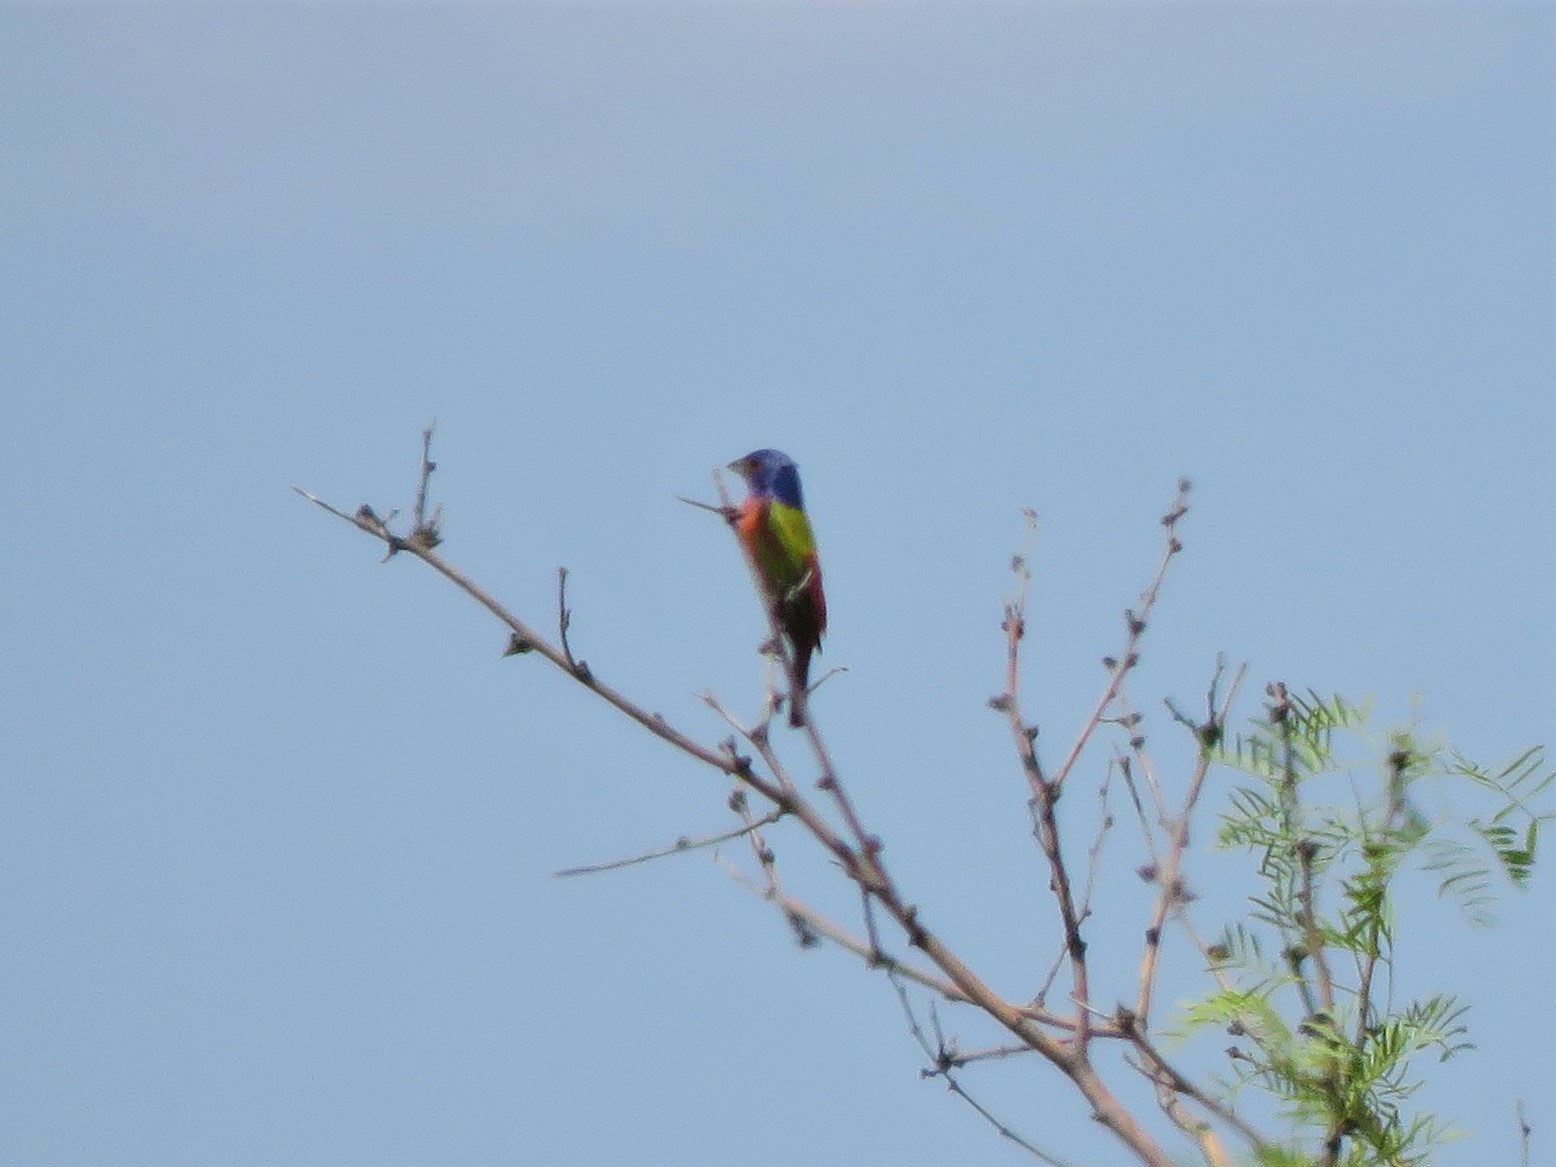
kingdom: Animalia
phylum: Chordata
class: Aves
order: Passeriformes
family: Cardinalidae
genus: Passerina
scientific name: Passerina ciris
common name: Painted bunting
